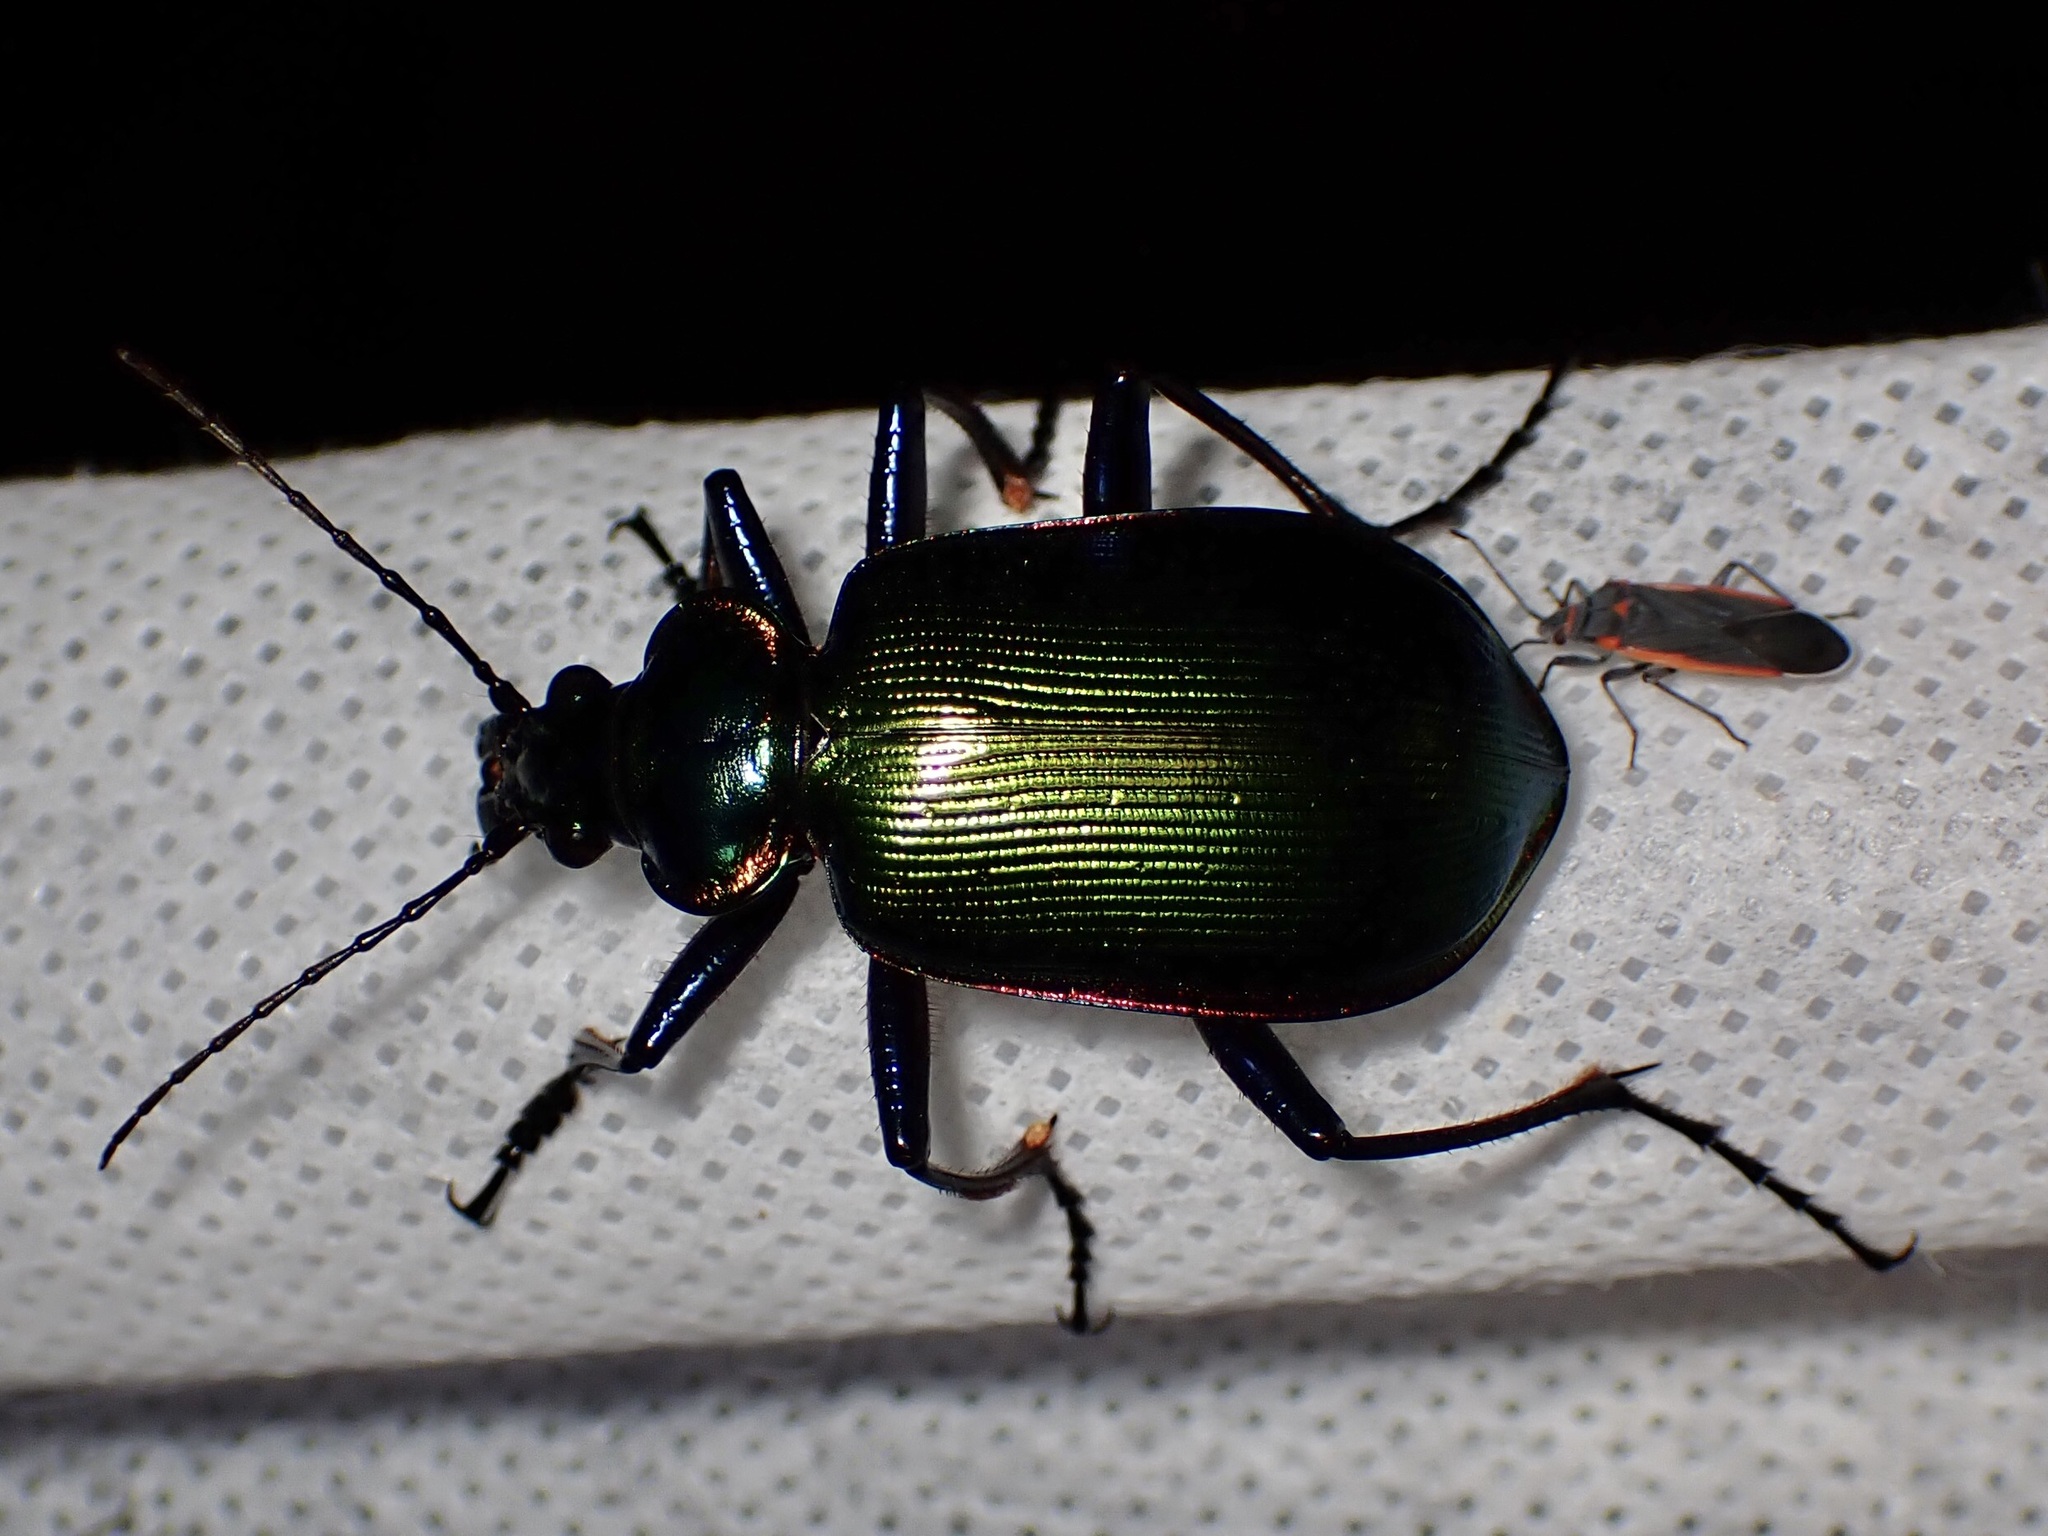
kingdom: Animalia
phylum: Arthropoda
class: Insecta
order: Coleoptera
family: Carabidae
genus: Calosoma
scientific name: Calosoma scrutator
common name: Fiery searcher beetle
